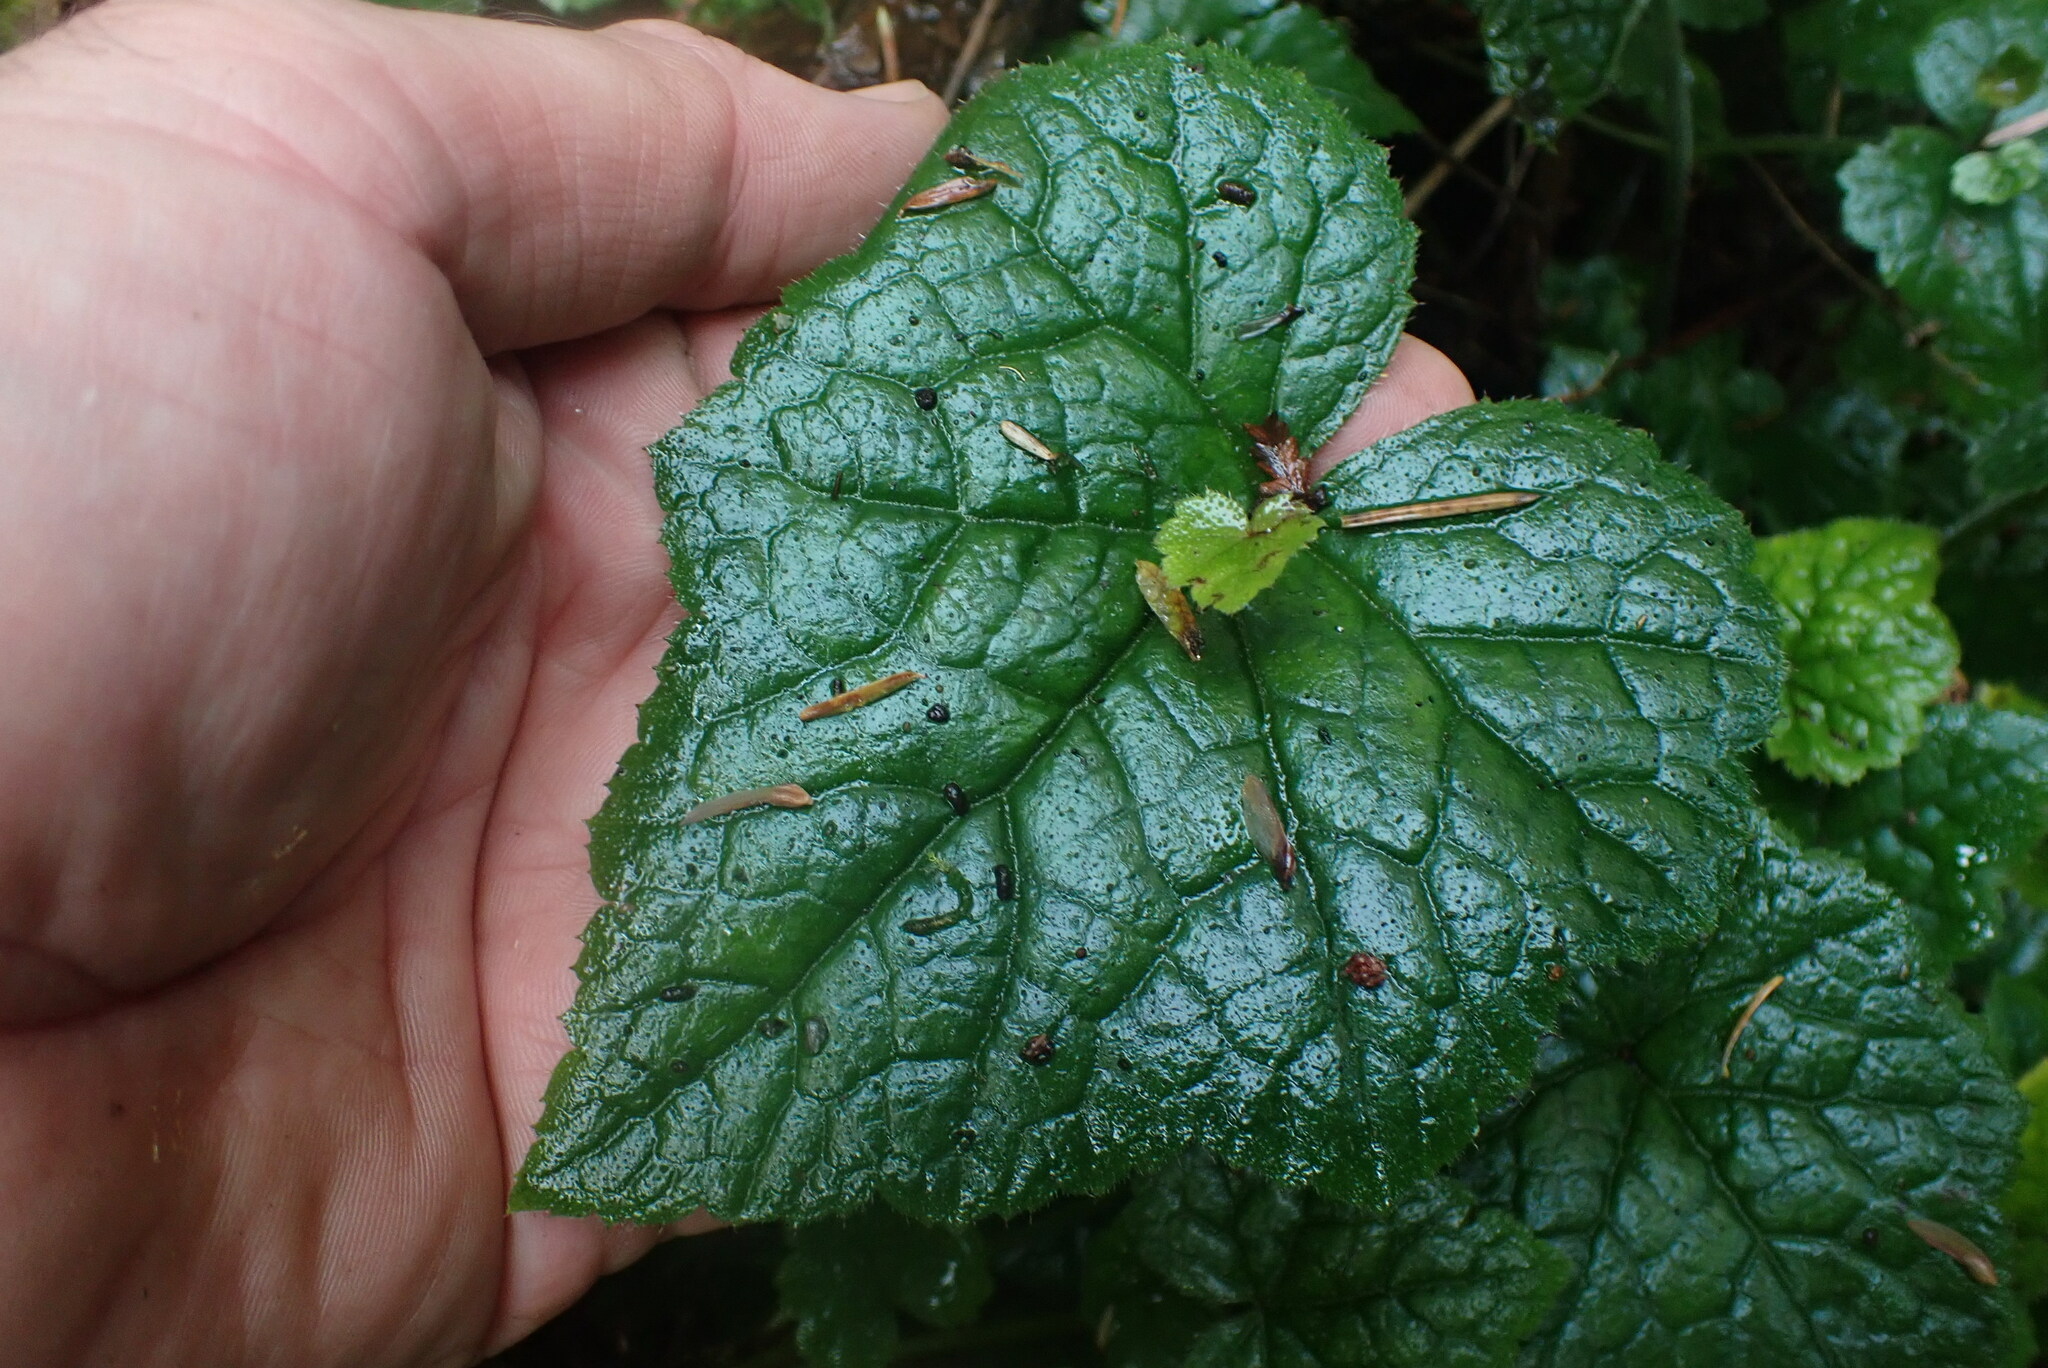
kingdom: Plantae
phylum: Tracheophyta
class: Magnoliopsida
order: Saxifragales
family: Saxifragaceae
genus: Tolmiea
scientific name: Tolmiea menziesii
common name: Pick-a-back-plant
